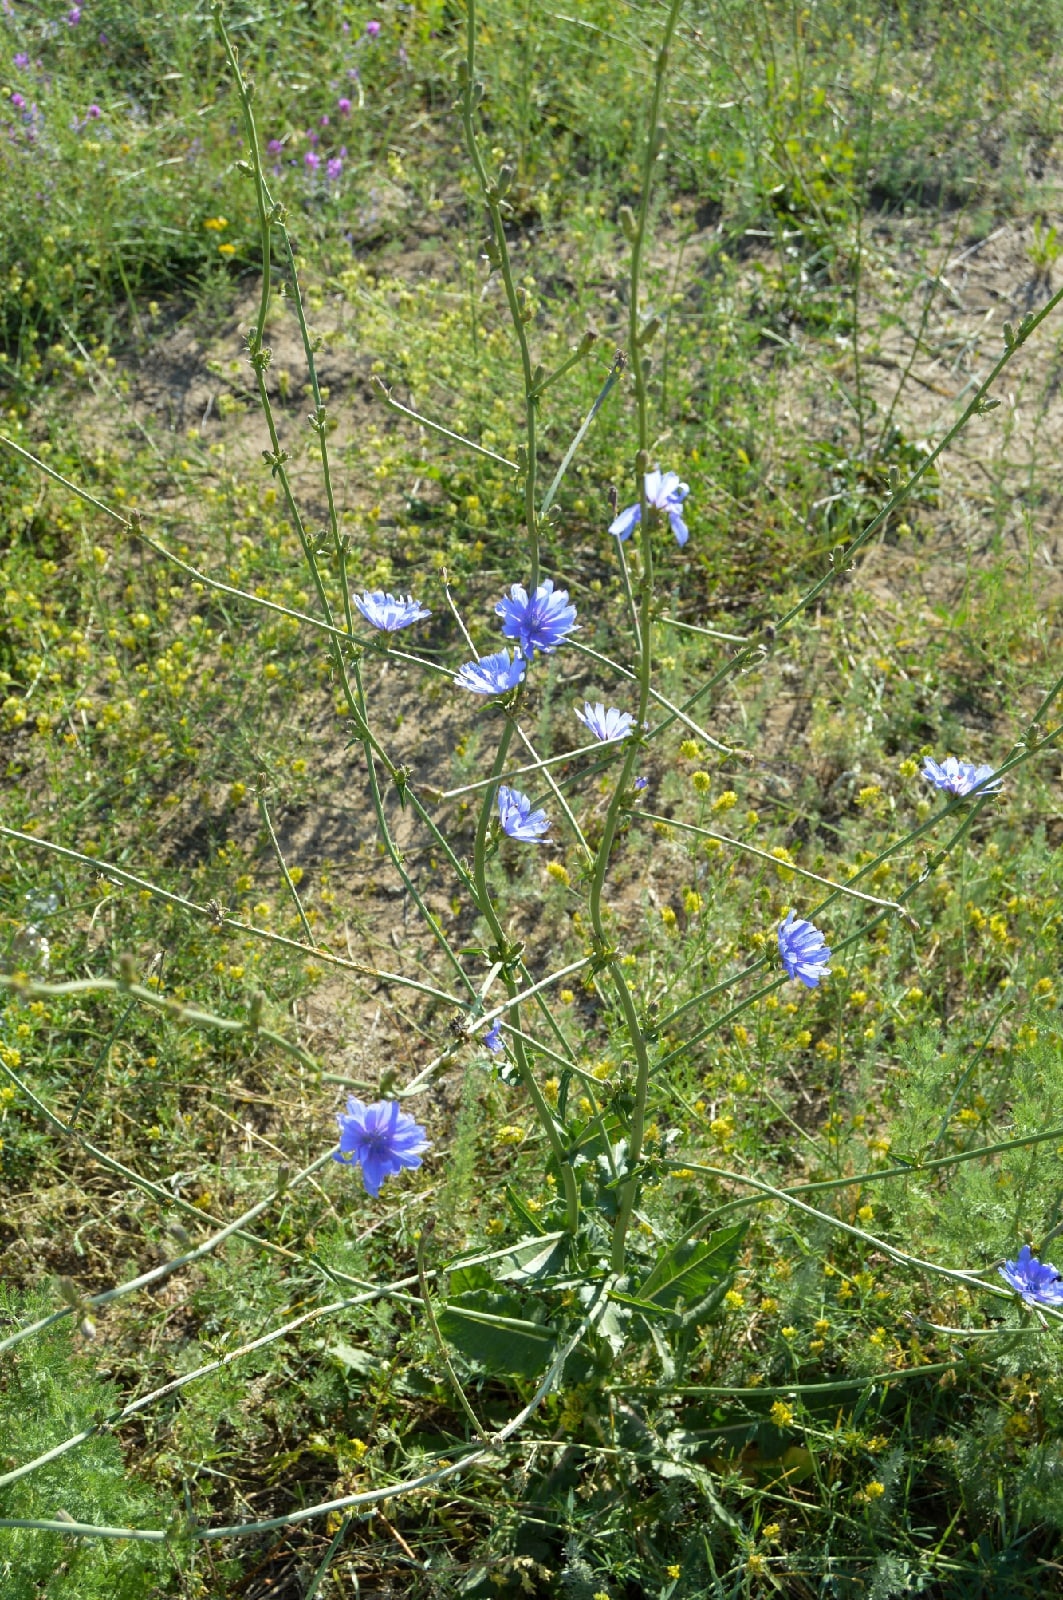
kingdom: Plantae
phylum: Tracheophyta
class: Magnoliopsida
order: Asterales
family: Asteraceae
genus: Cichorium
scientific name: Cichorium intybus
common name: Chicory
